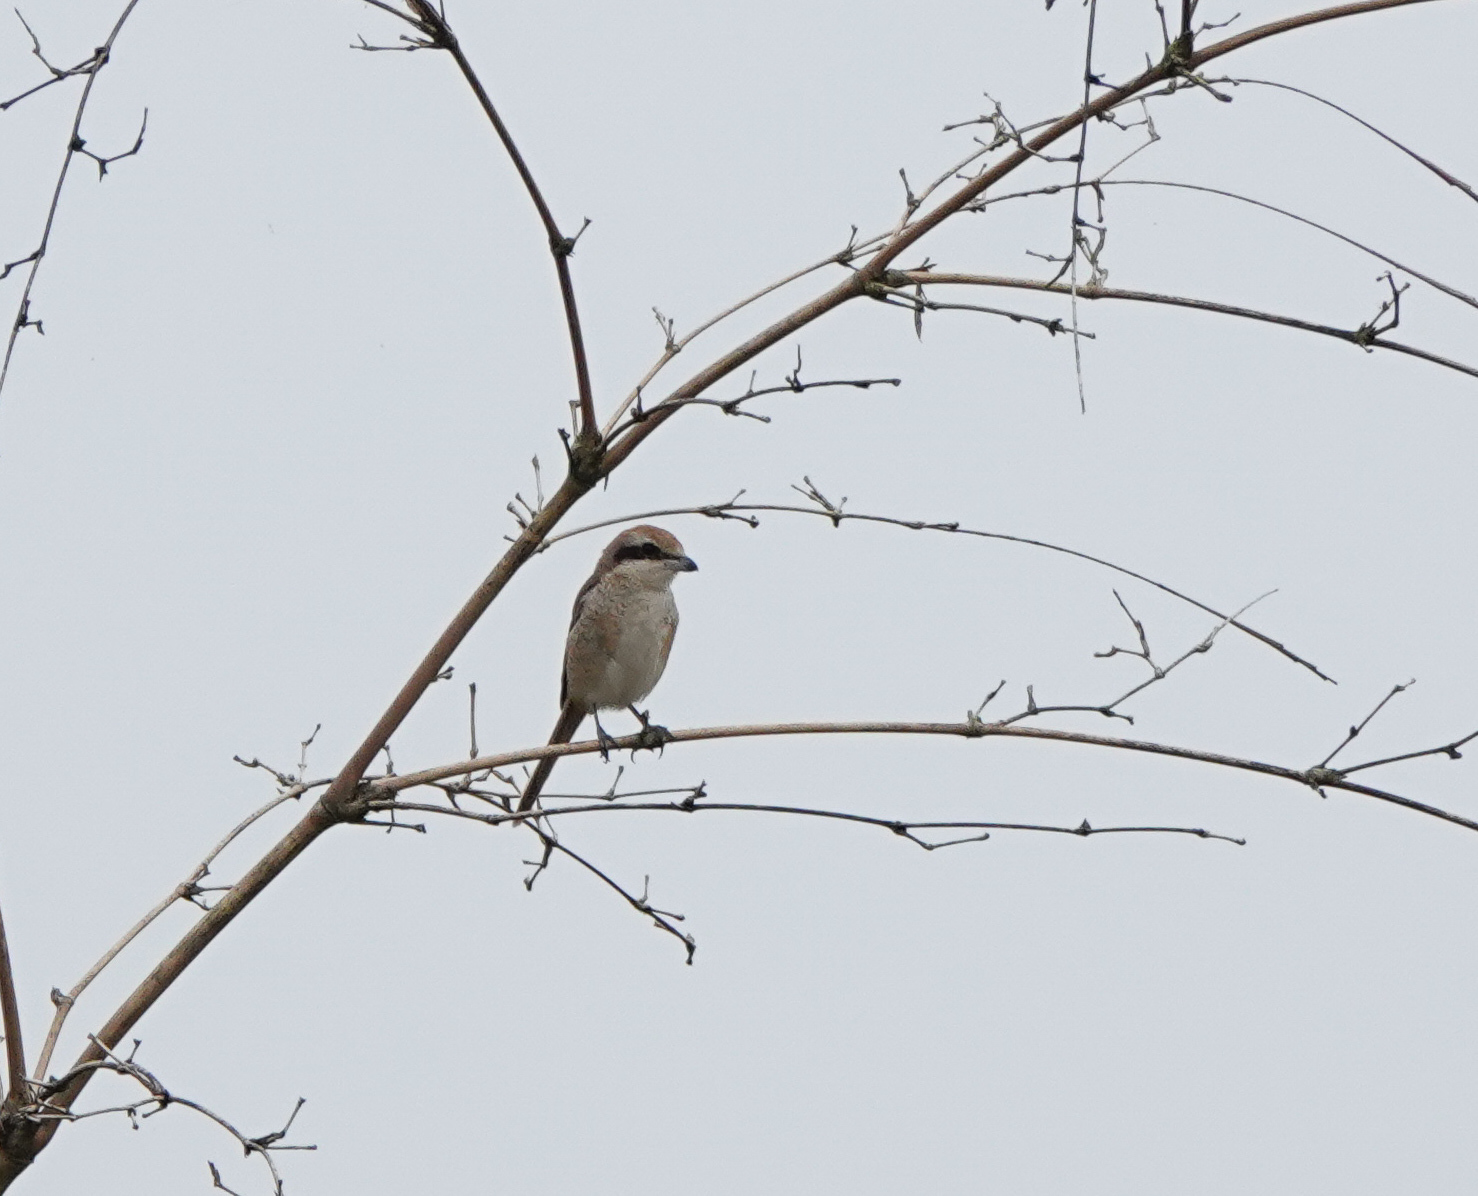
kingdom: Animalia
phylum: Chordata
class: Aves
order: Passeriformes
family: Laniidae
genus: Lanius
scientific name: Lanius cristatus
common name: Brown shrike
